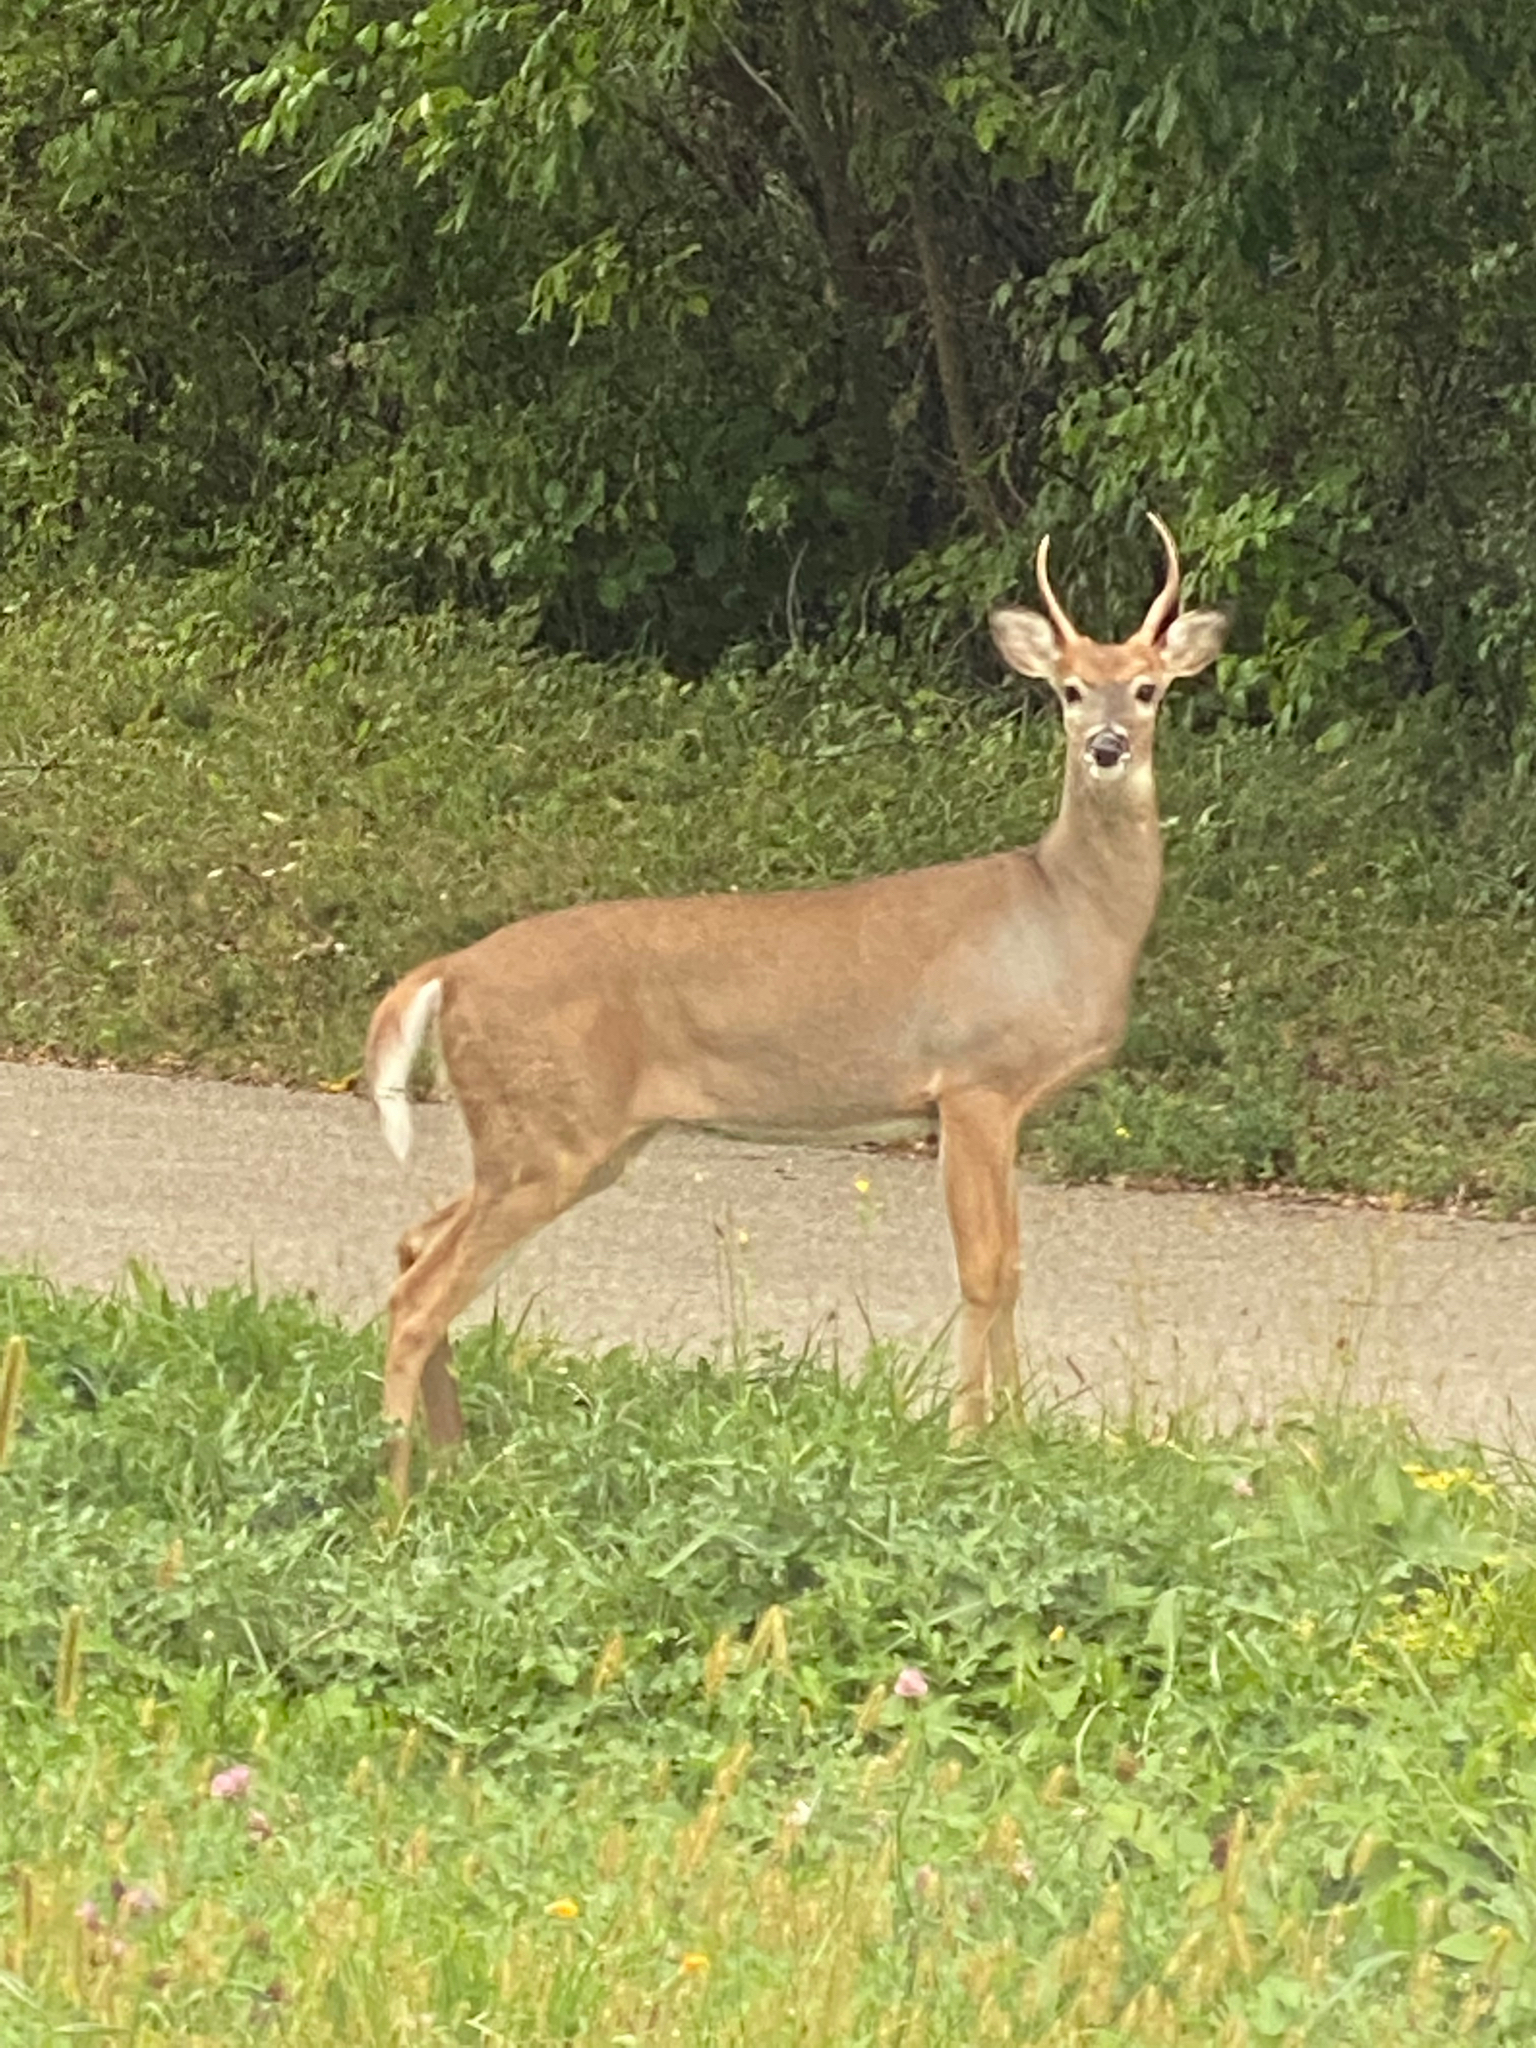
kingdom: Animalia
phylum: Chordata
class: Mammalia
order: Artiodactyla
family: Cervidae
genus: Odocoileus
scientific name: Odocoileus virginianus
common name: White-tailed deer
